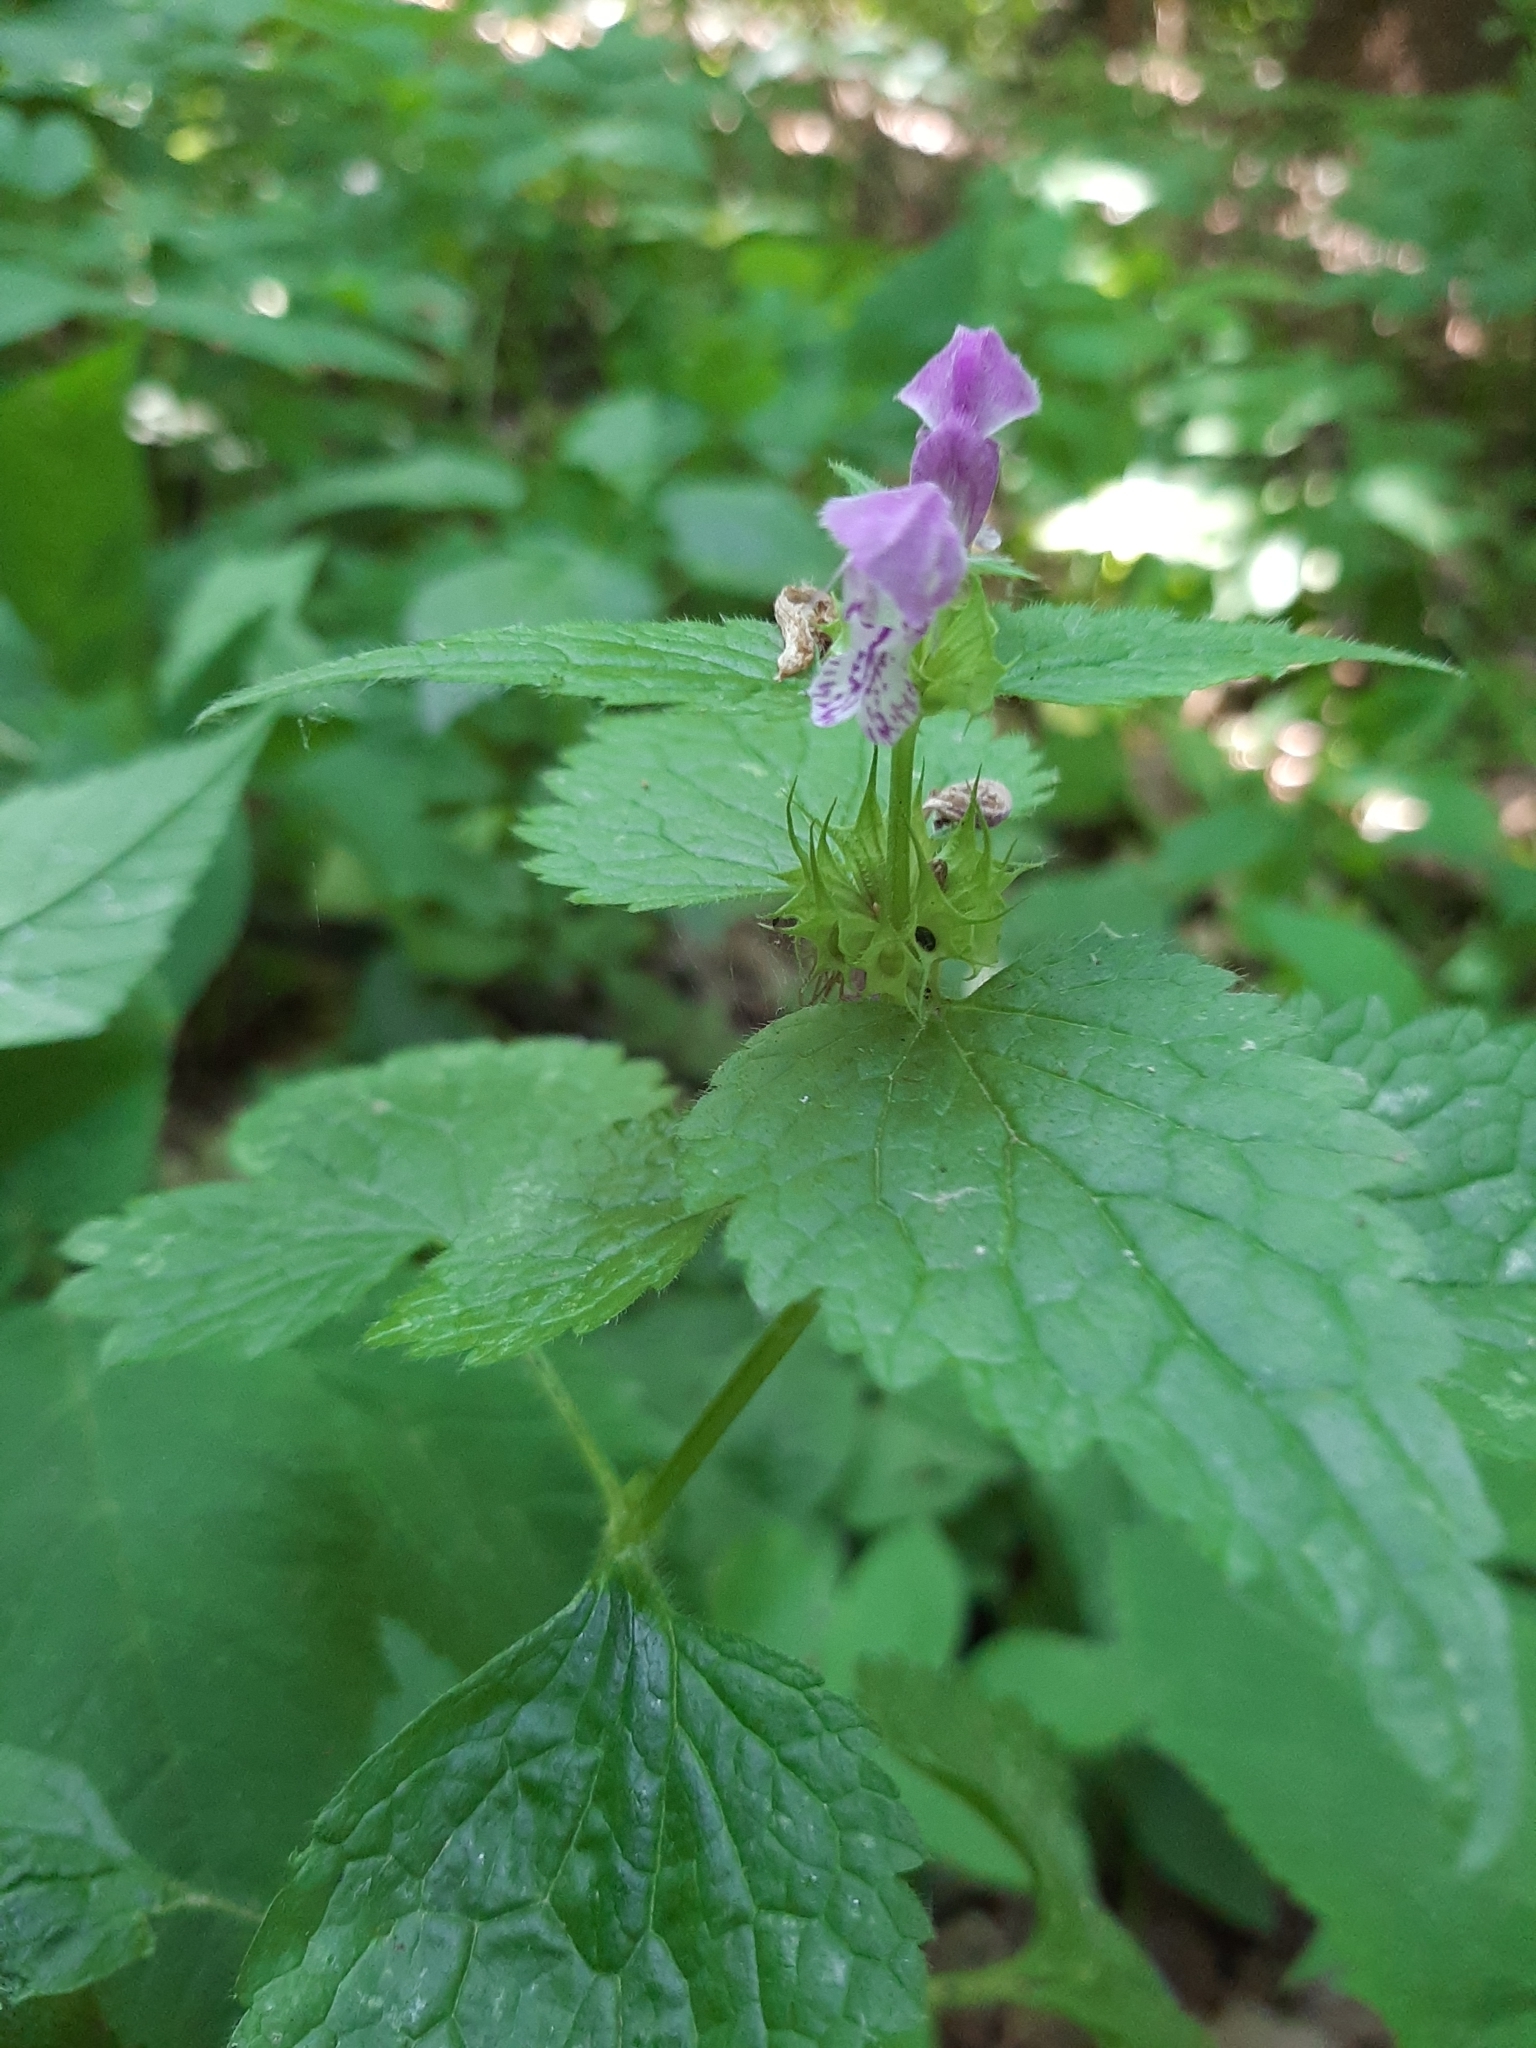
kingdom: Plantae
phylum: Tracheophyta
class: Magnoliopsida
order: Lamiales
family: Lamiaceae
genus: Lamium
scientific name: Lamium maculatum
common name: Spotted dead-nettle
